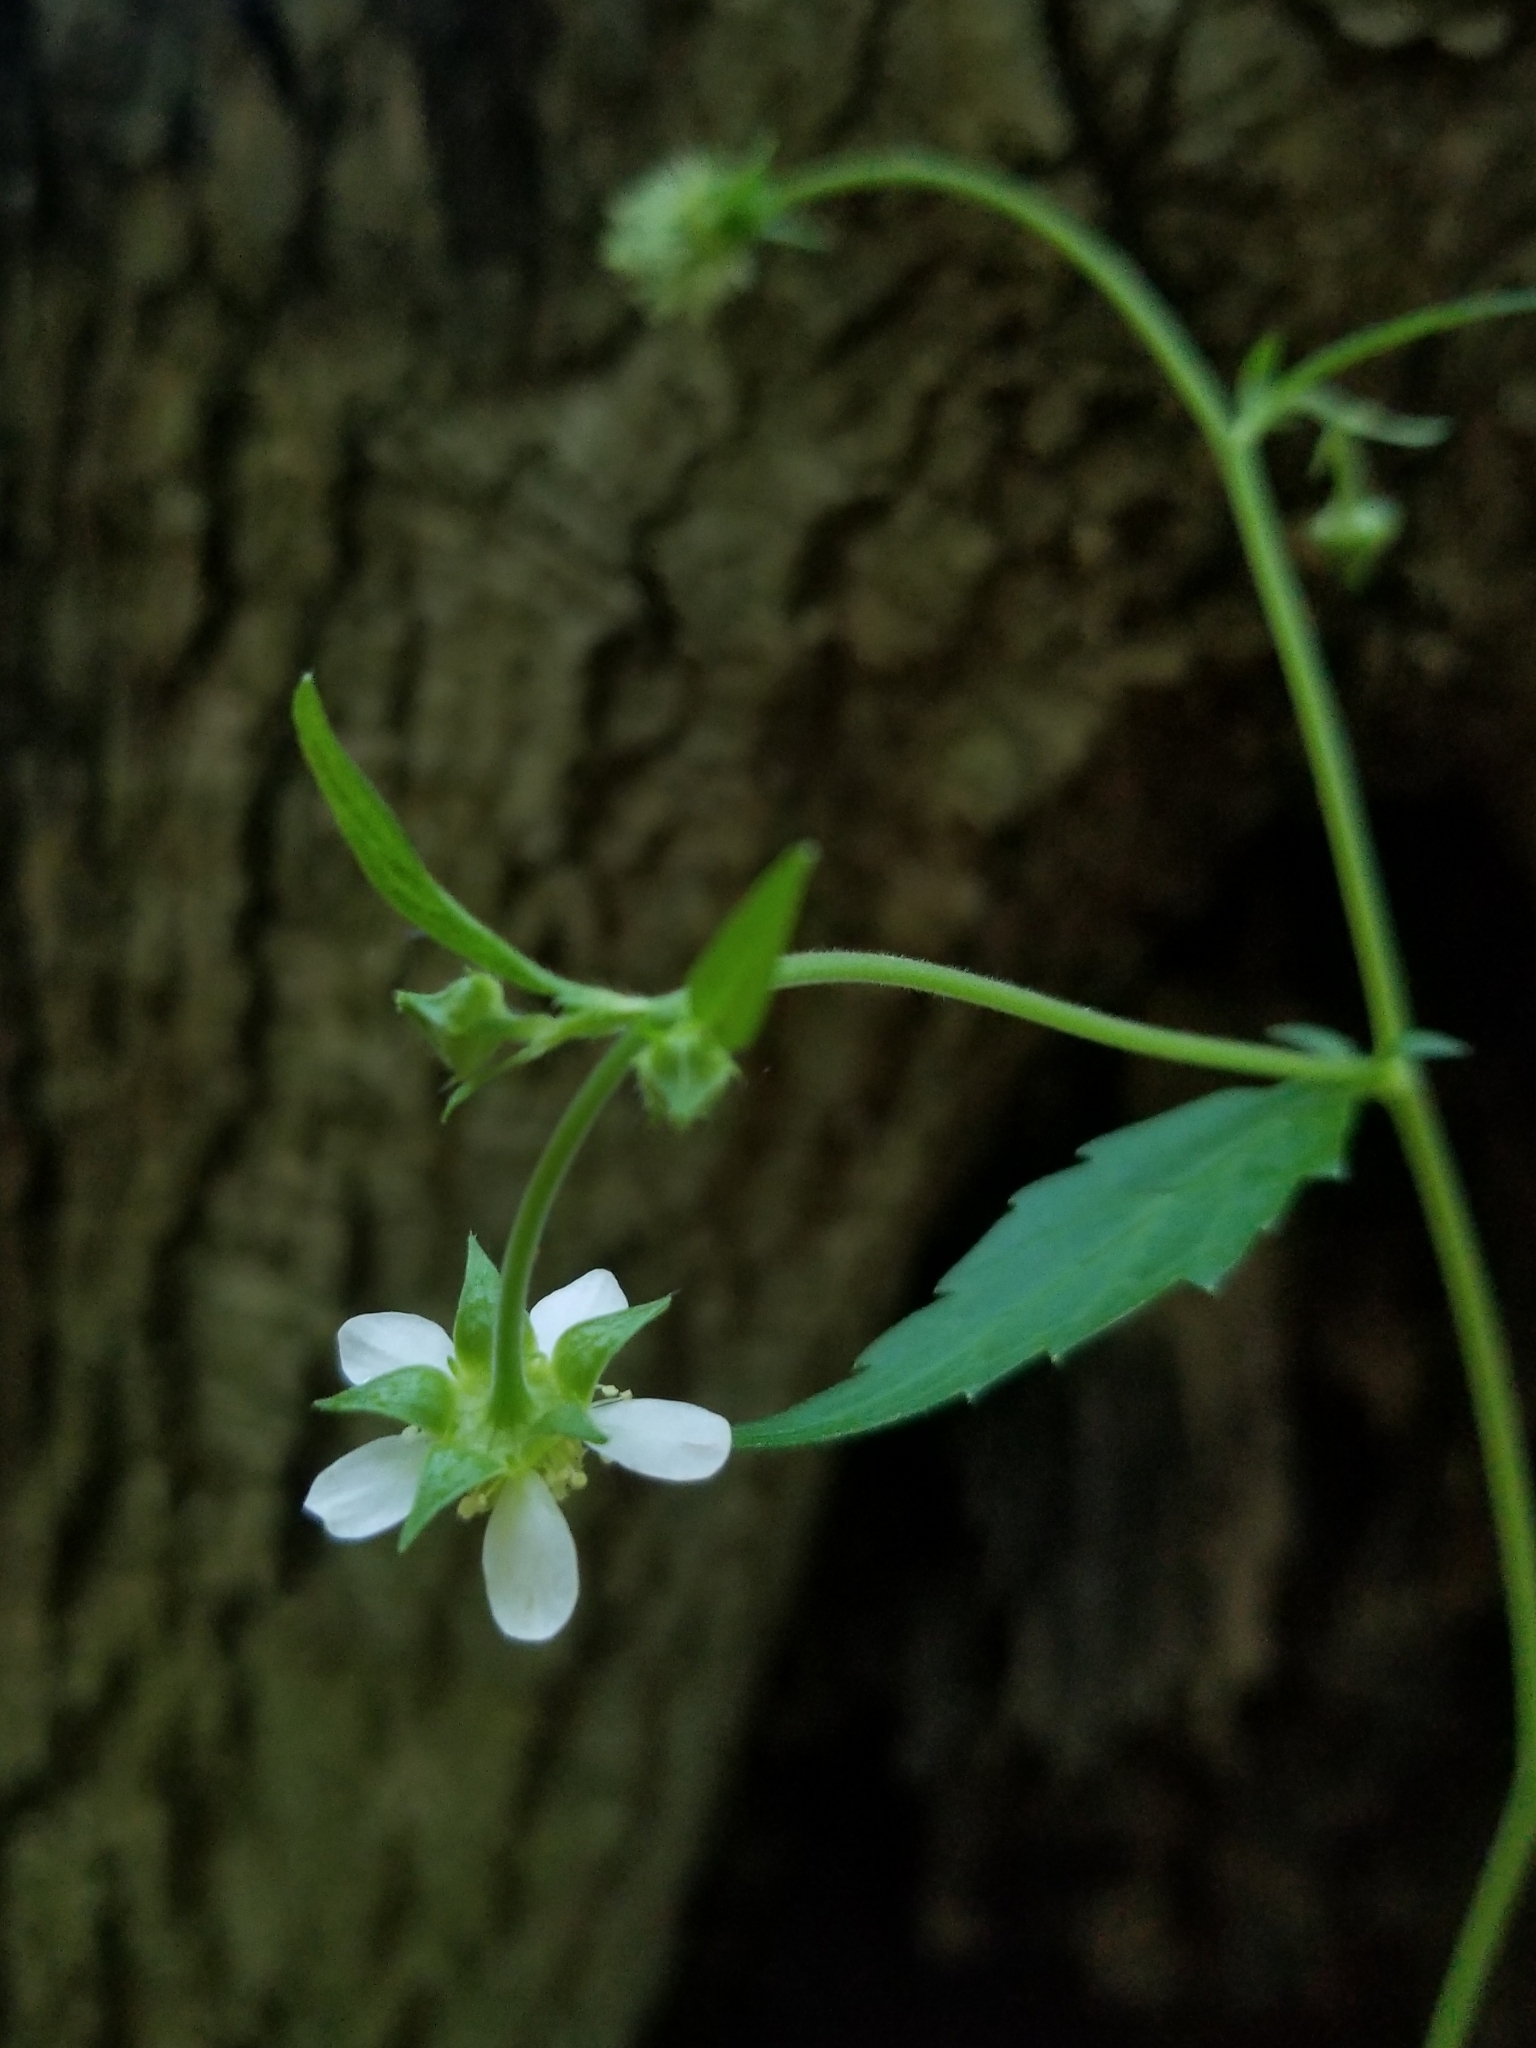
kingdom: Plantae
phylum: Tracheophyta
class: Magnoliopsida
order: Rosales
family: Rosaceae
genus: Geum
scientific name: Geum canadense
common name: White avens
